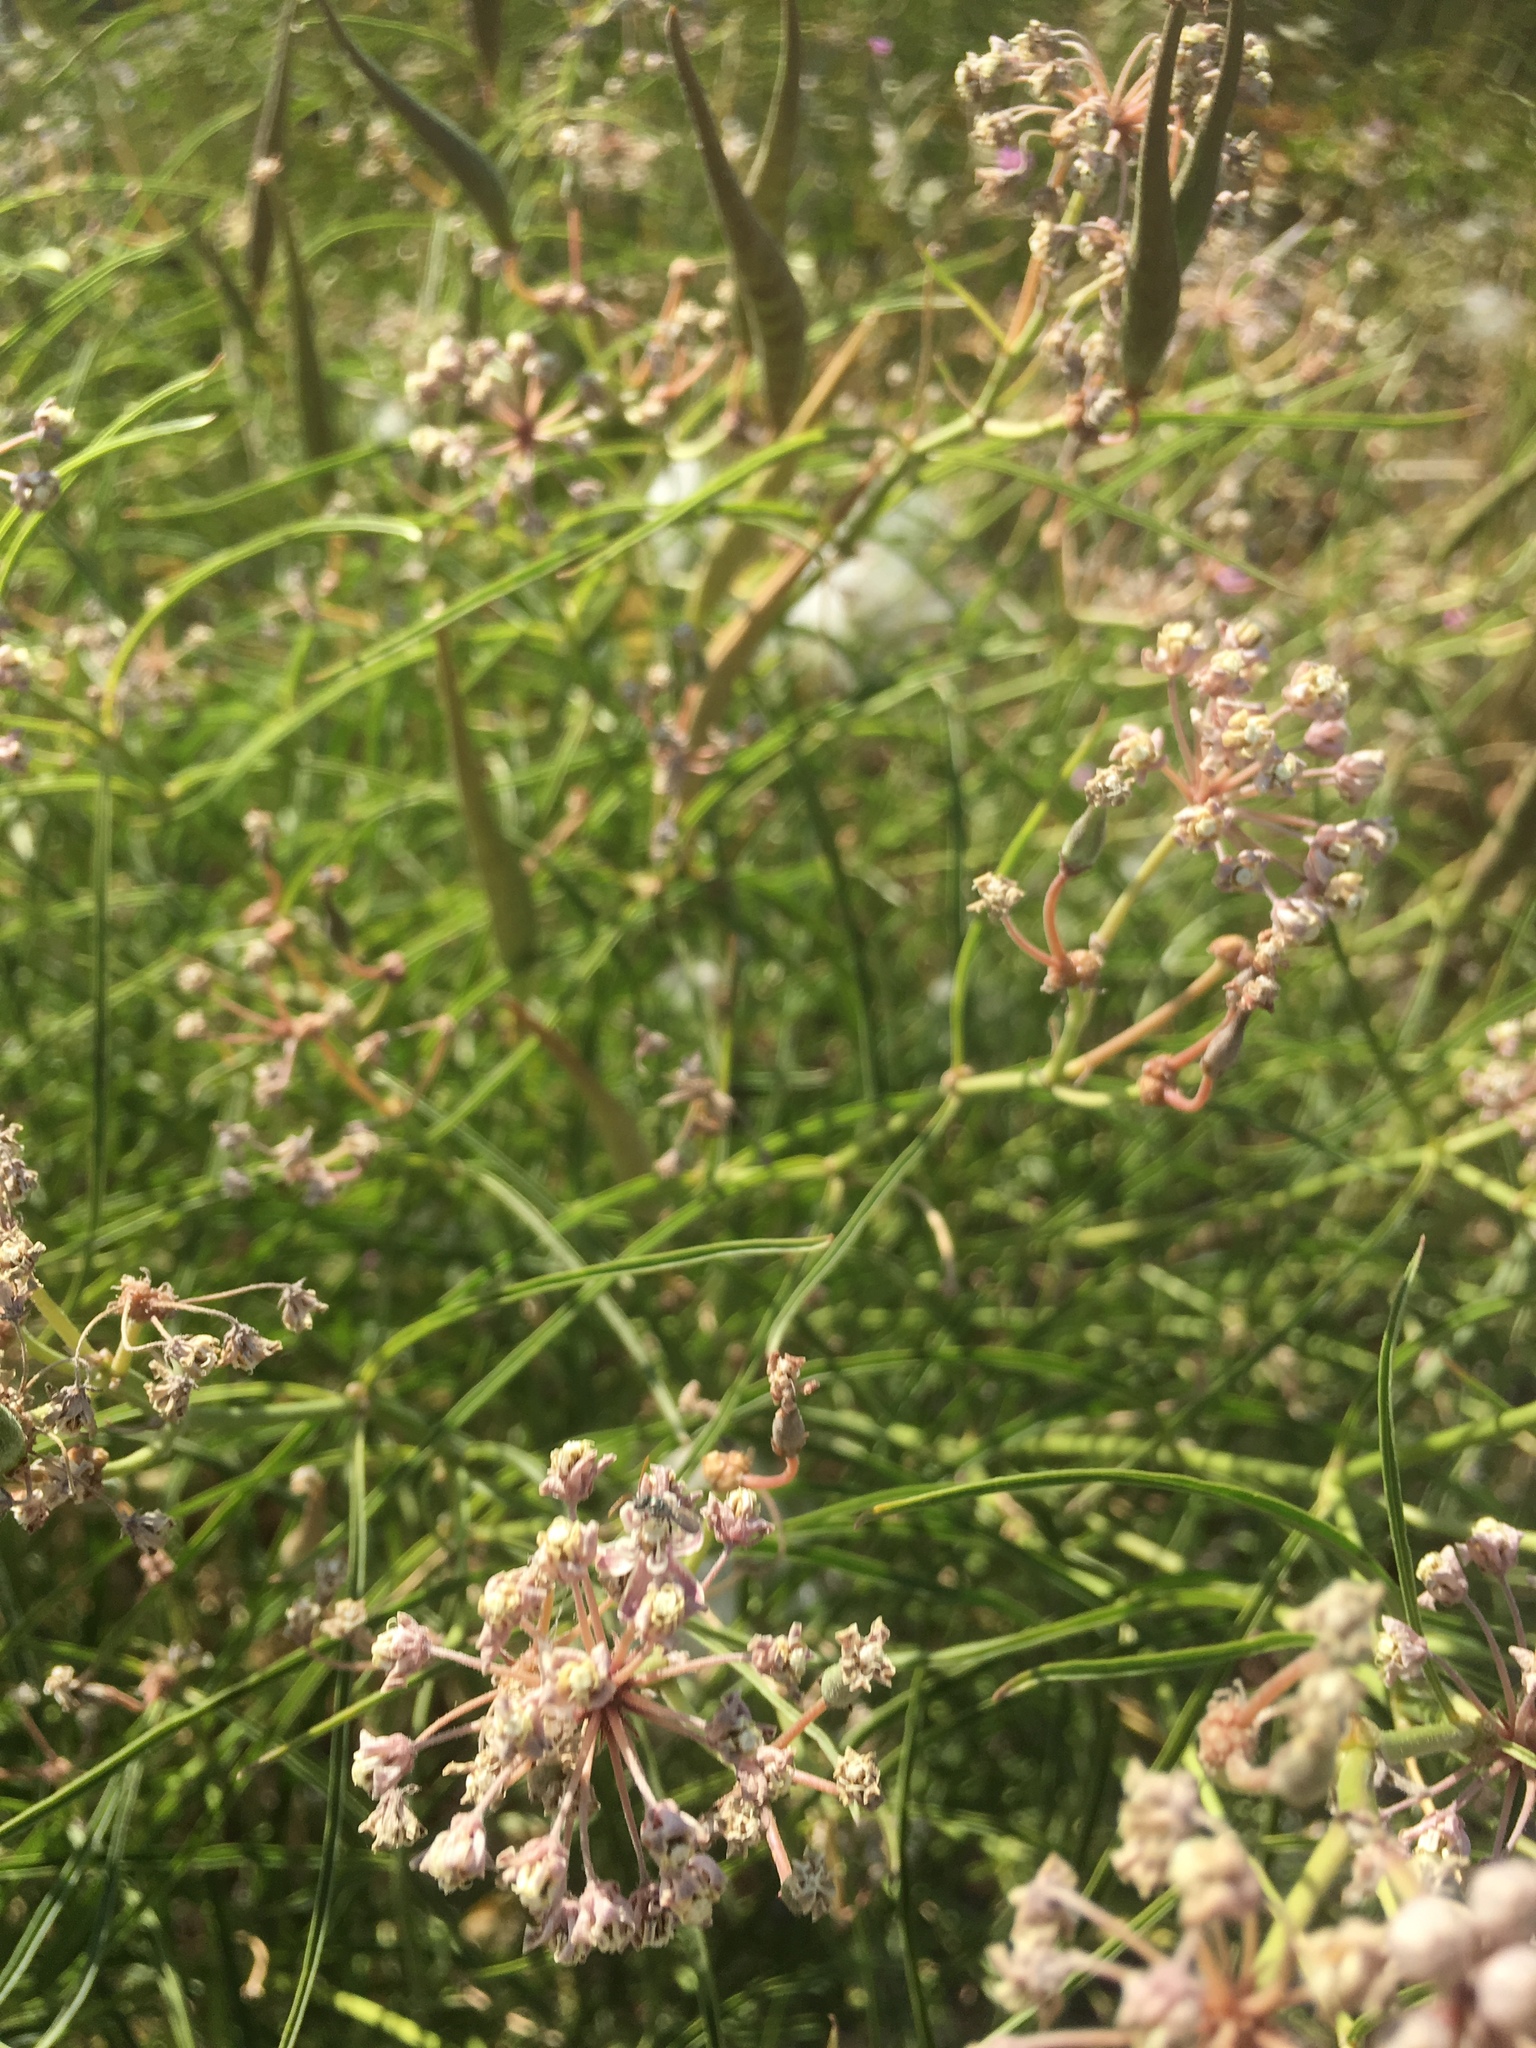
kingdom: Plantae
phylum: Tracheophyta
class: Magnoliopsida
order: Gentianales
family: Apocynaceae
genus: Asclepias
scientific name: Asclepias fascicularis
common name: Mexican milkweed
